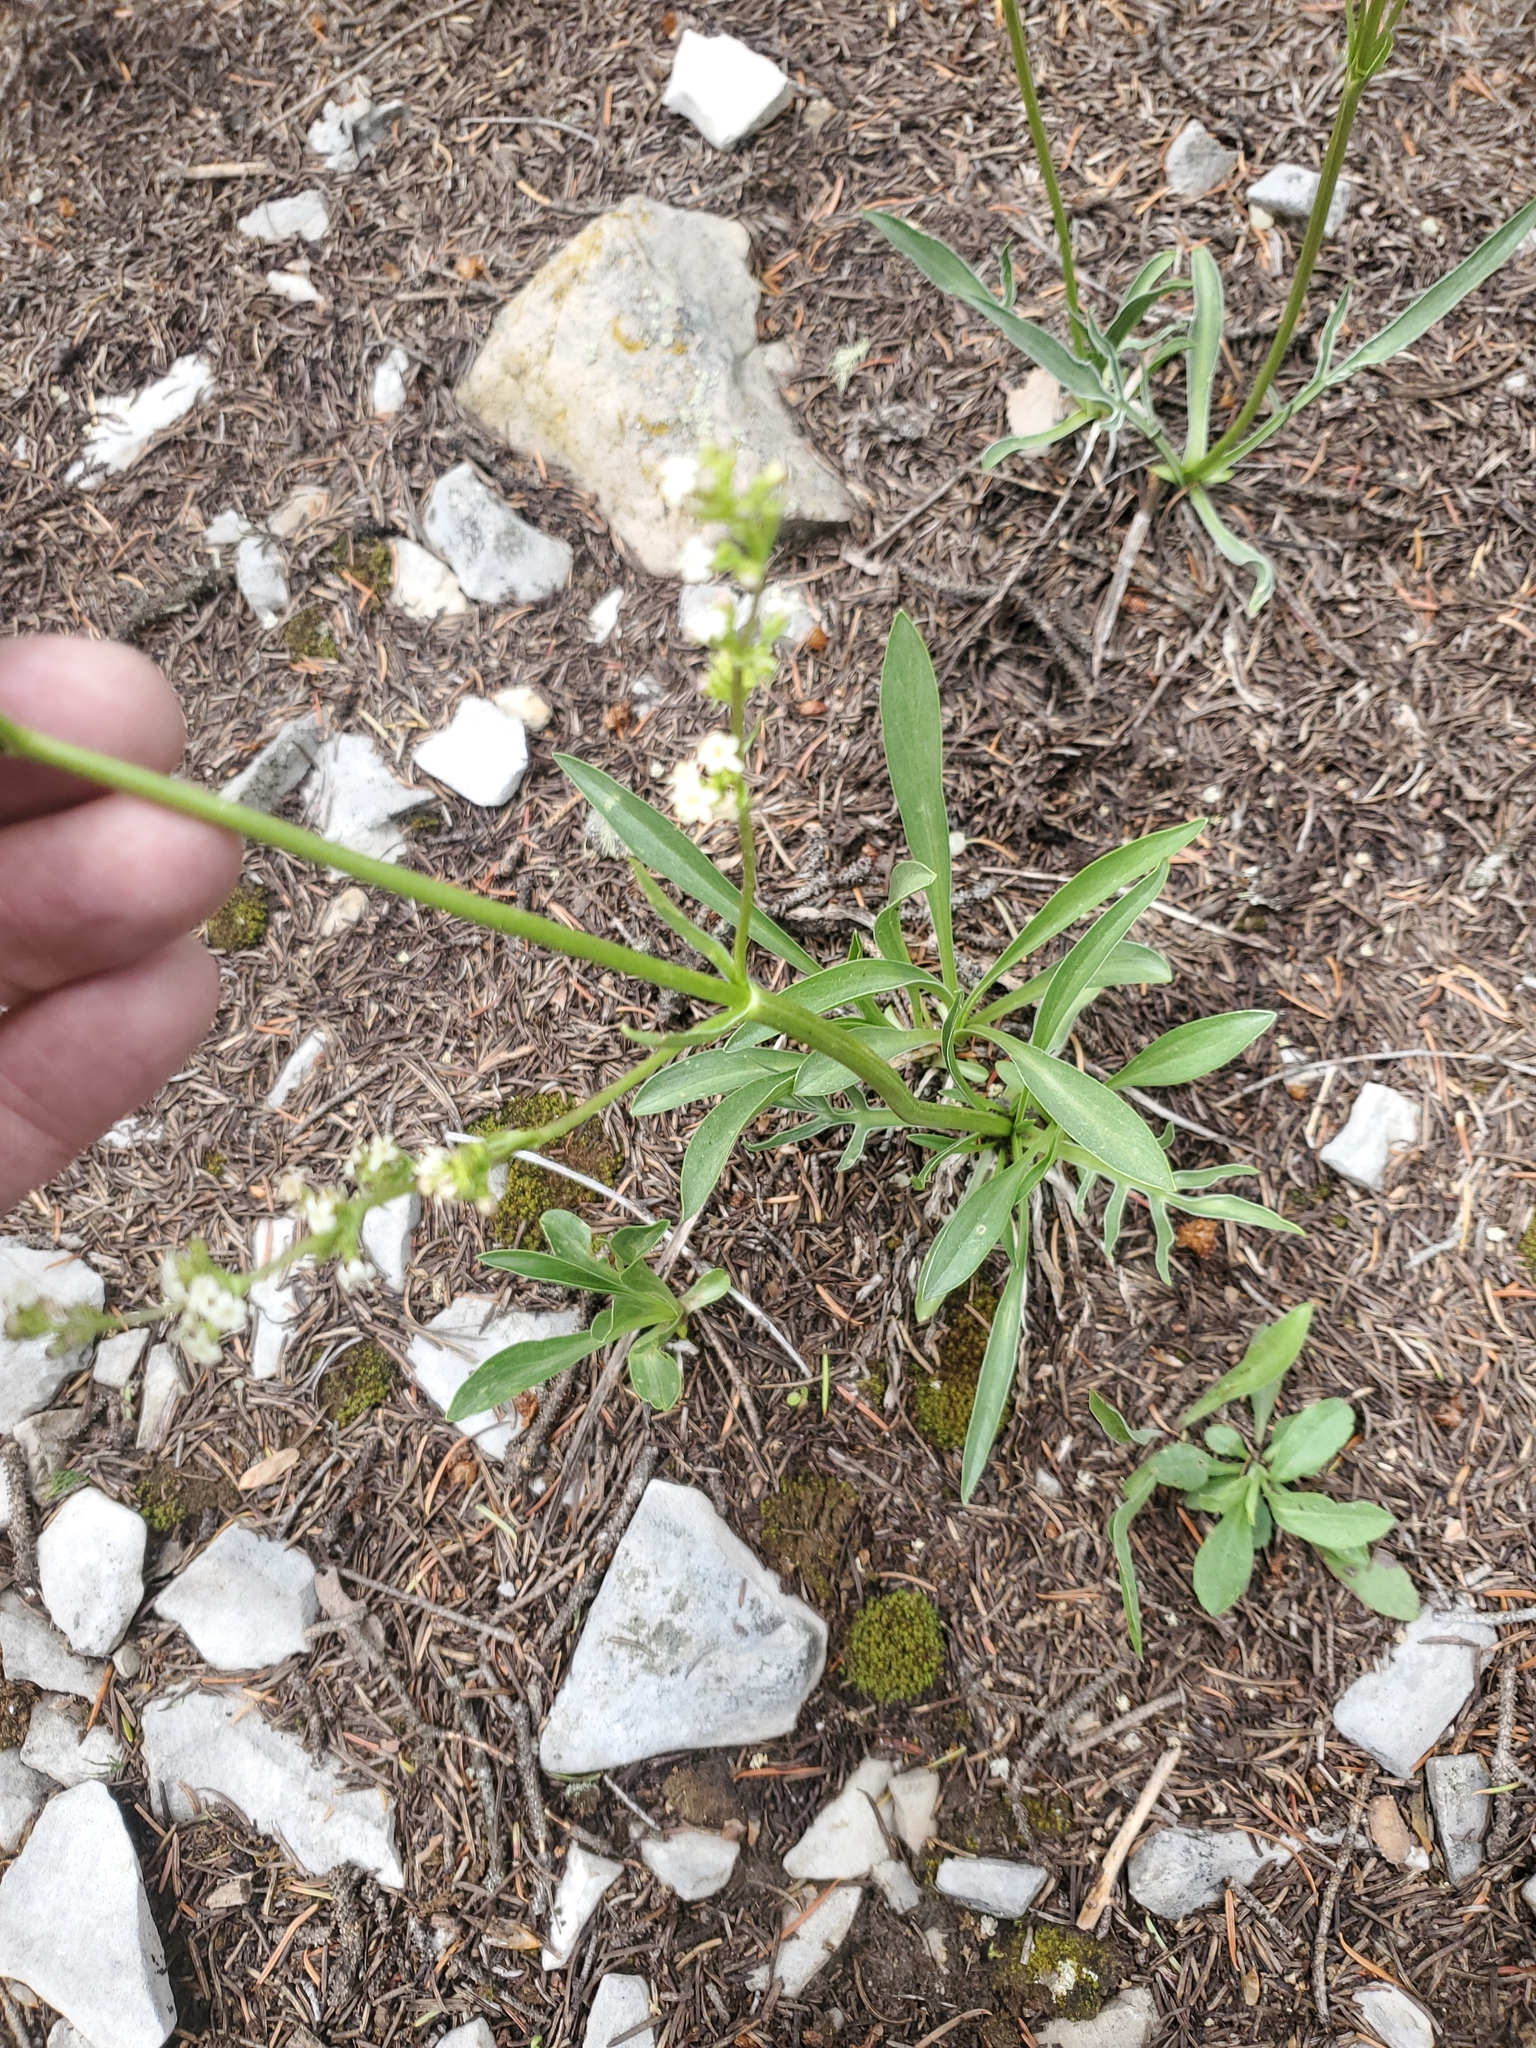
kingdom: Plantae
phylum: Tracheophyta
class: Magnoliopsida
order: Dipsacales
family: Caprifoliaceae
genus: Valeriana
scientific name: Valeriana edulis
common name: Taproot valerian
